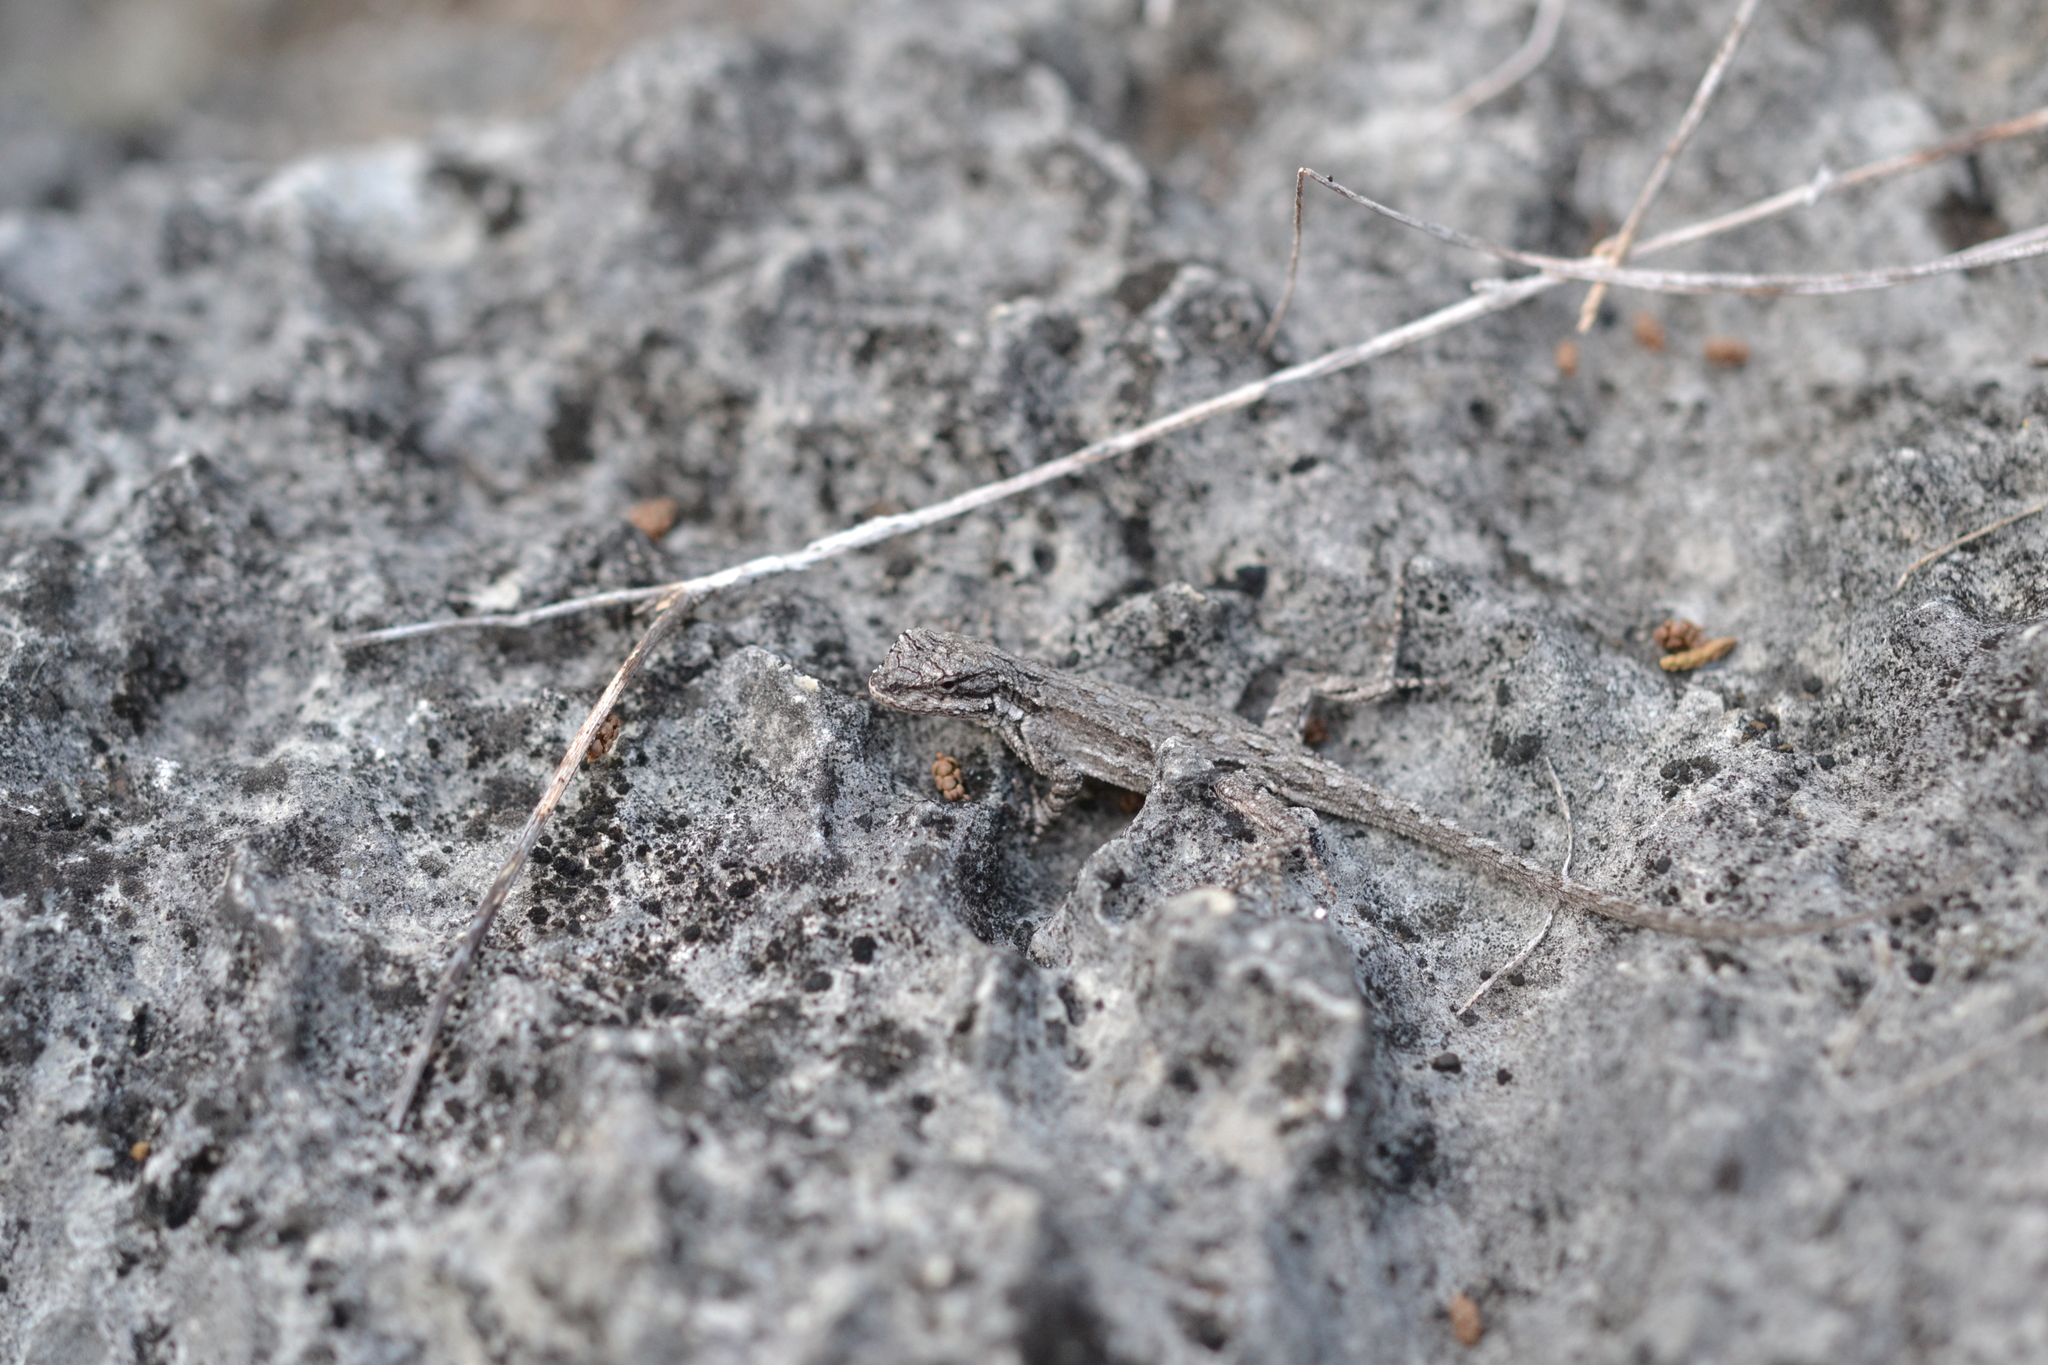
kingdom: Animalia
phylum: Chordata
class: Squamata
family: Phrynosomatidae
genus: Urosaurus
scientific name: Urosaurus ornatus
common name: Ornate tree lizard
